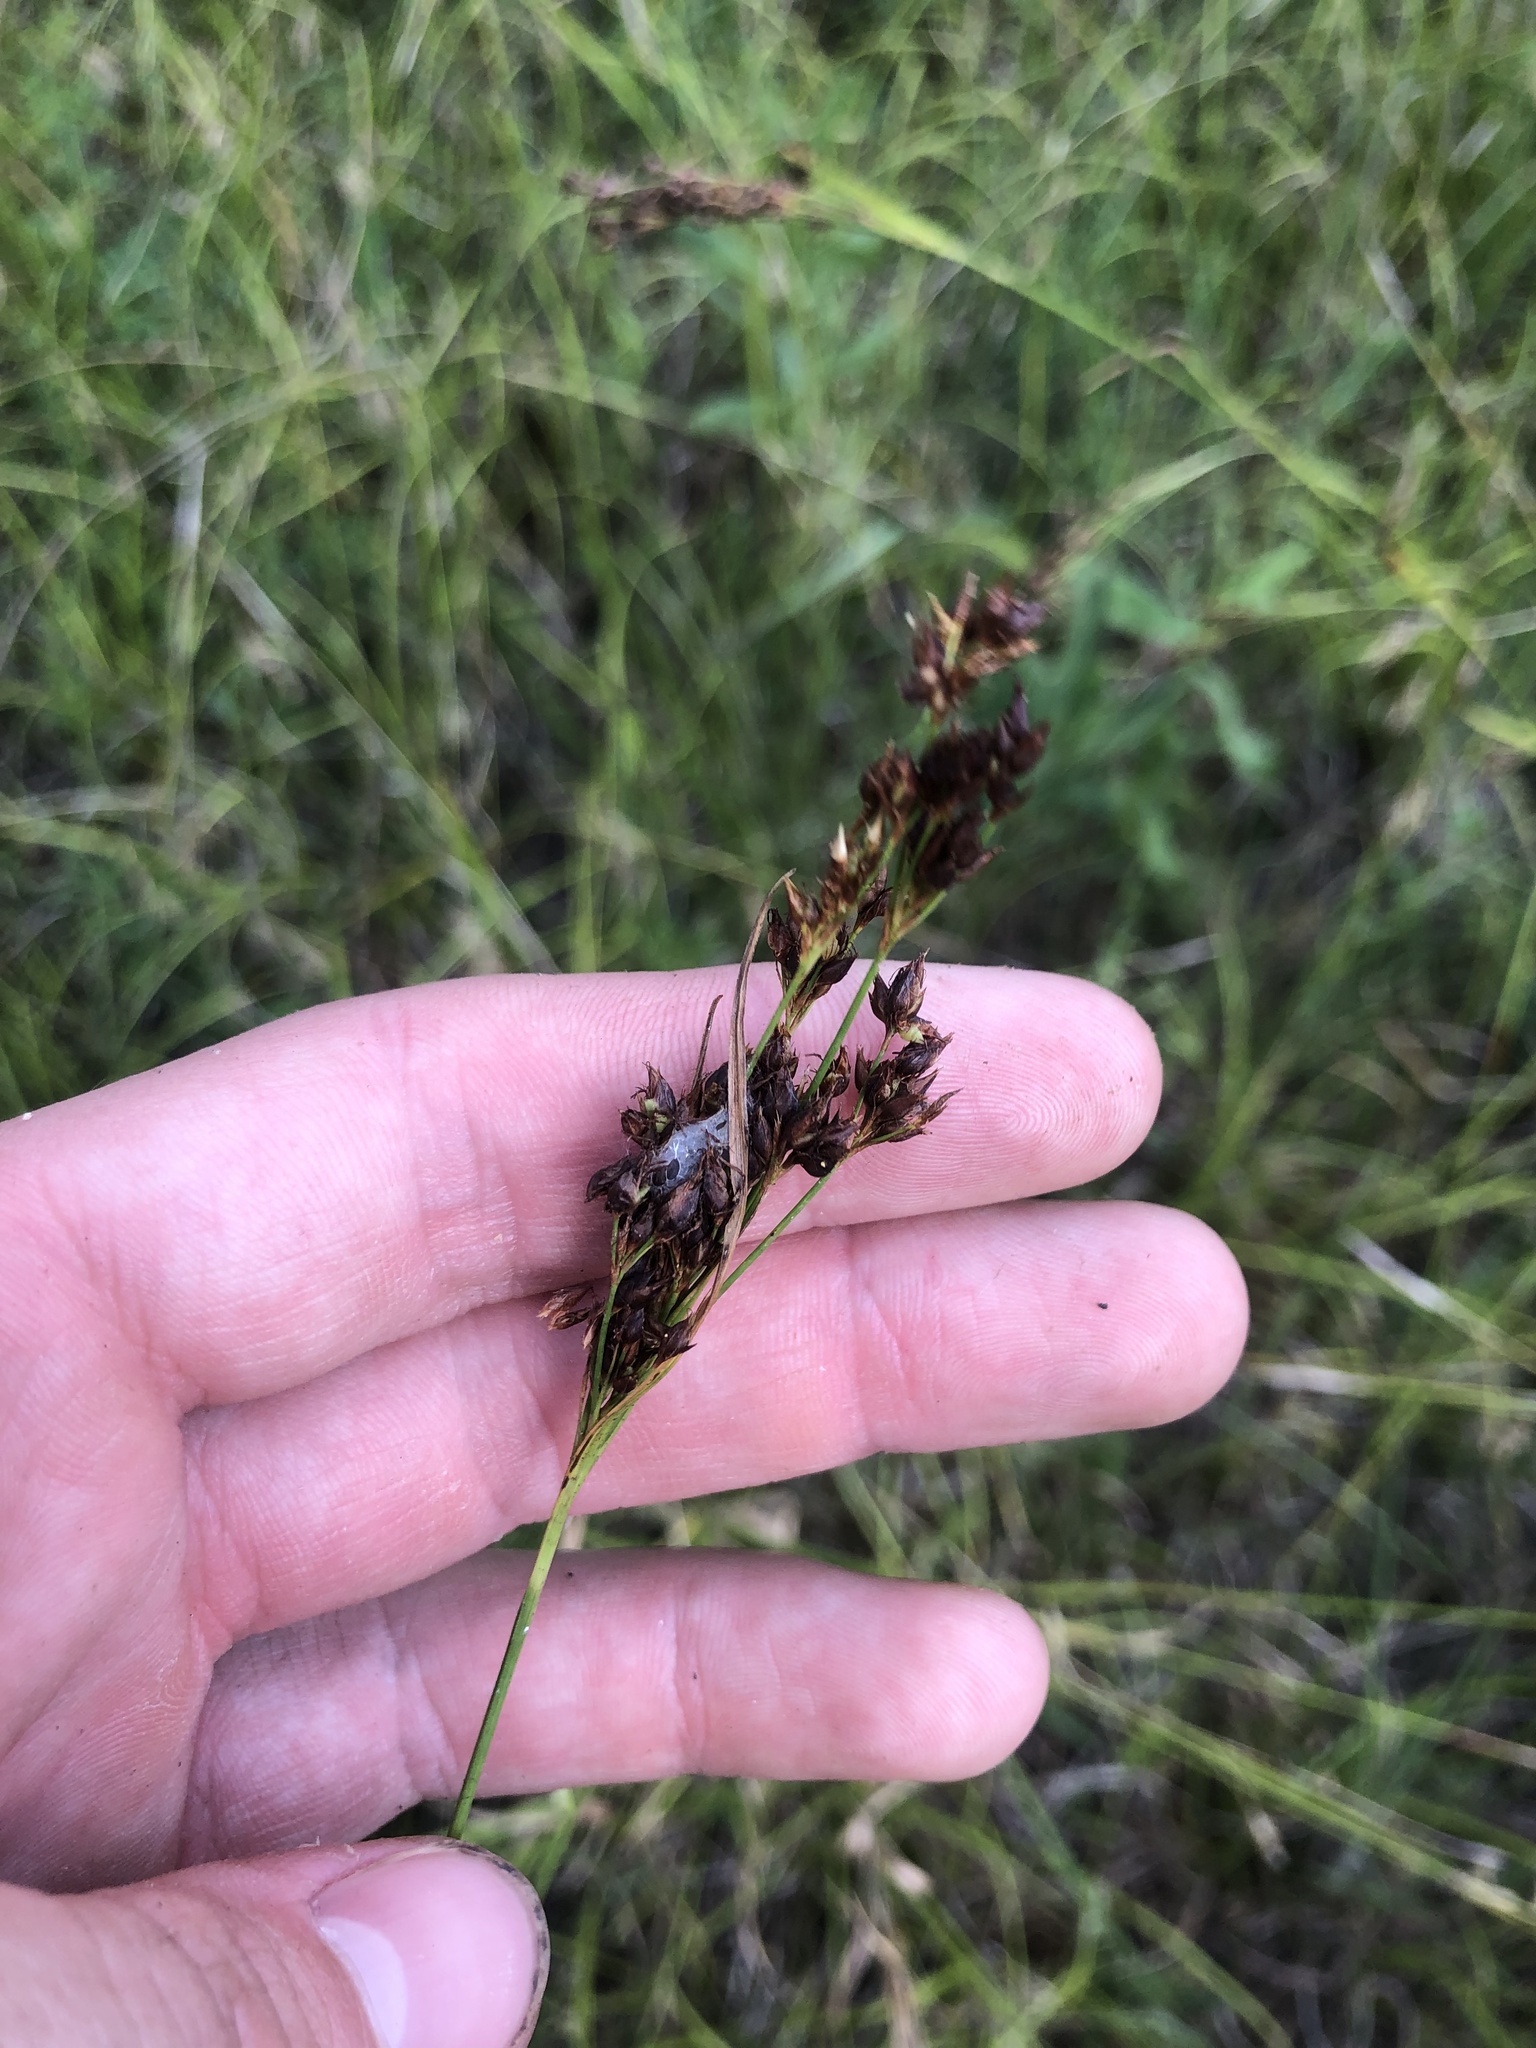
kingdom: Plantae
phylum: Tracheophyta
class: Liliopsida
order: Poales
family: Cyperaceae
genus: Rhynchospora
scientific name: Rhynchospora caduca
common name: Anglestem beaksedge
